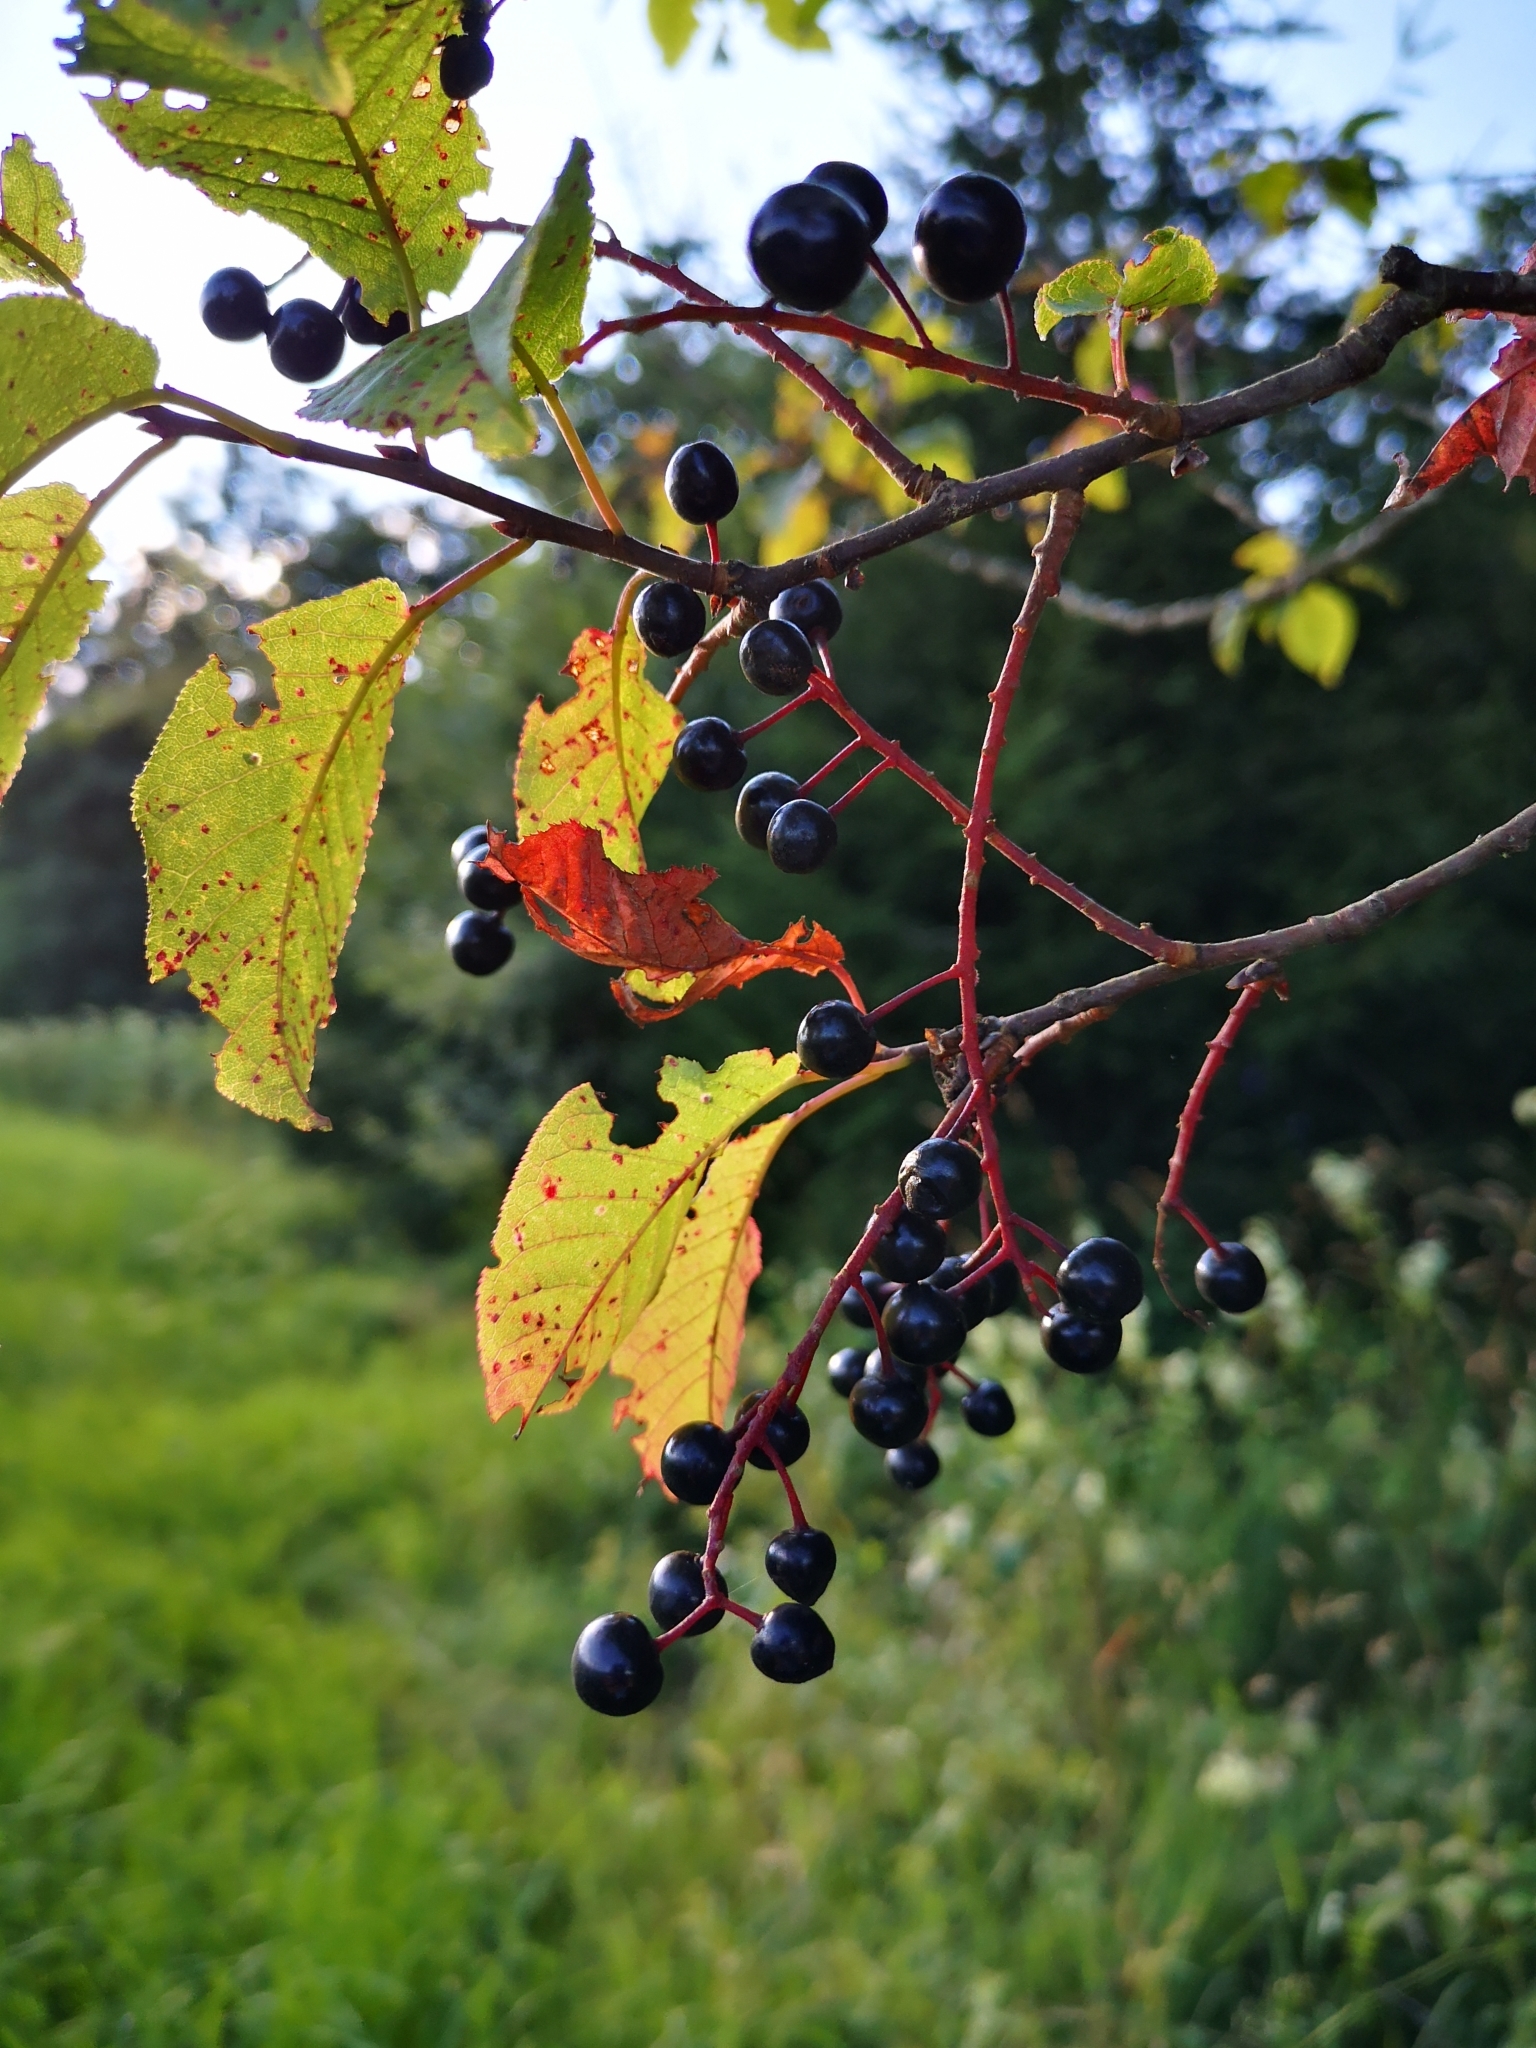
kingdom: Plantae
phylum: Tracheophyta
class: Magnoliopsida
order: Rosales
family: Rosaceae
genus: Prunus
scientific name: Prunus padus
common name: Bird cherry
